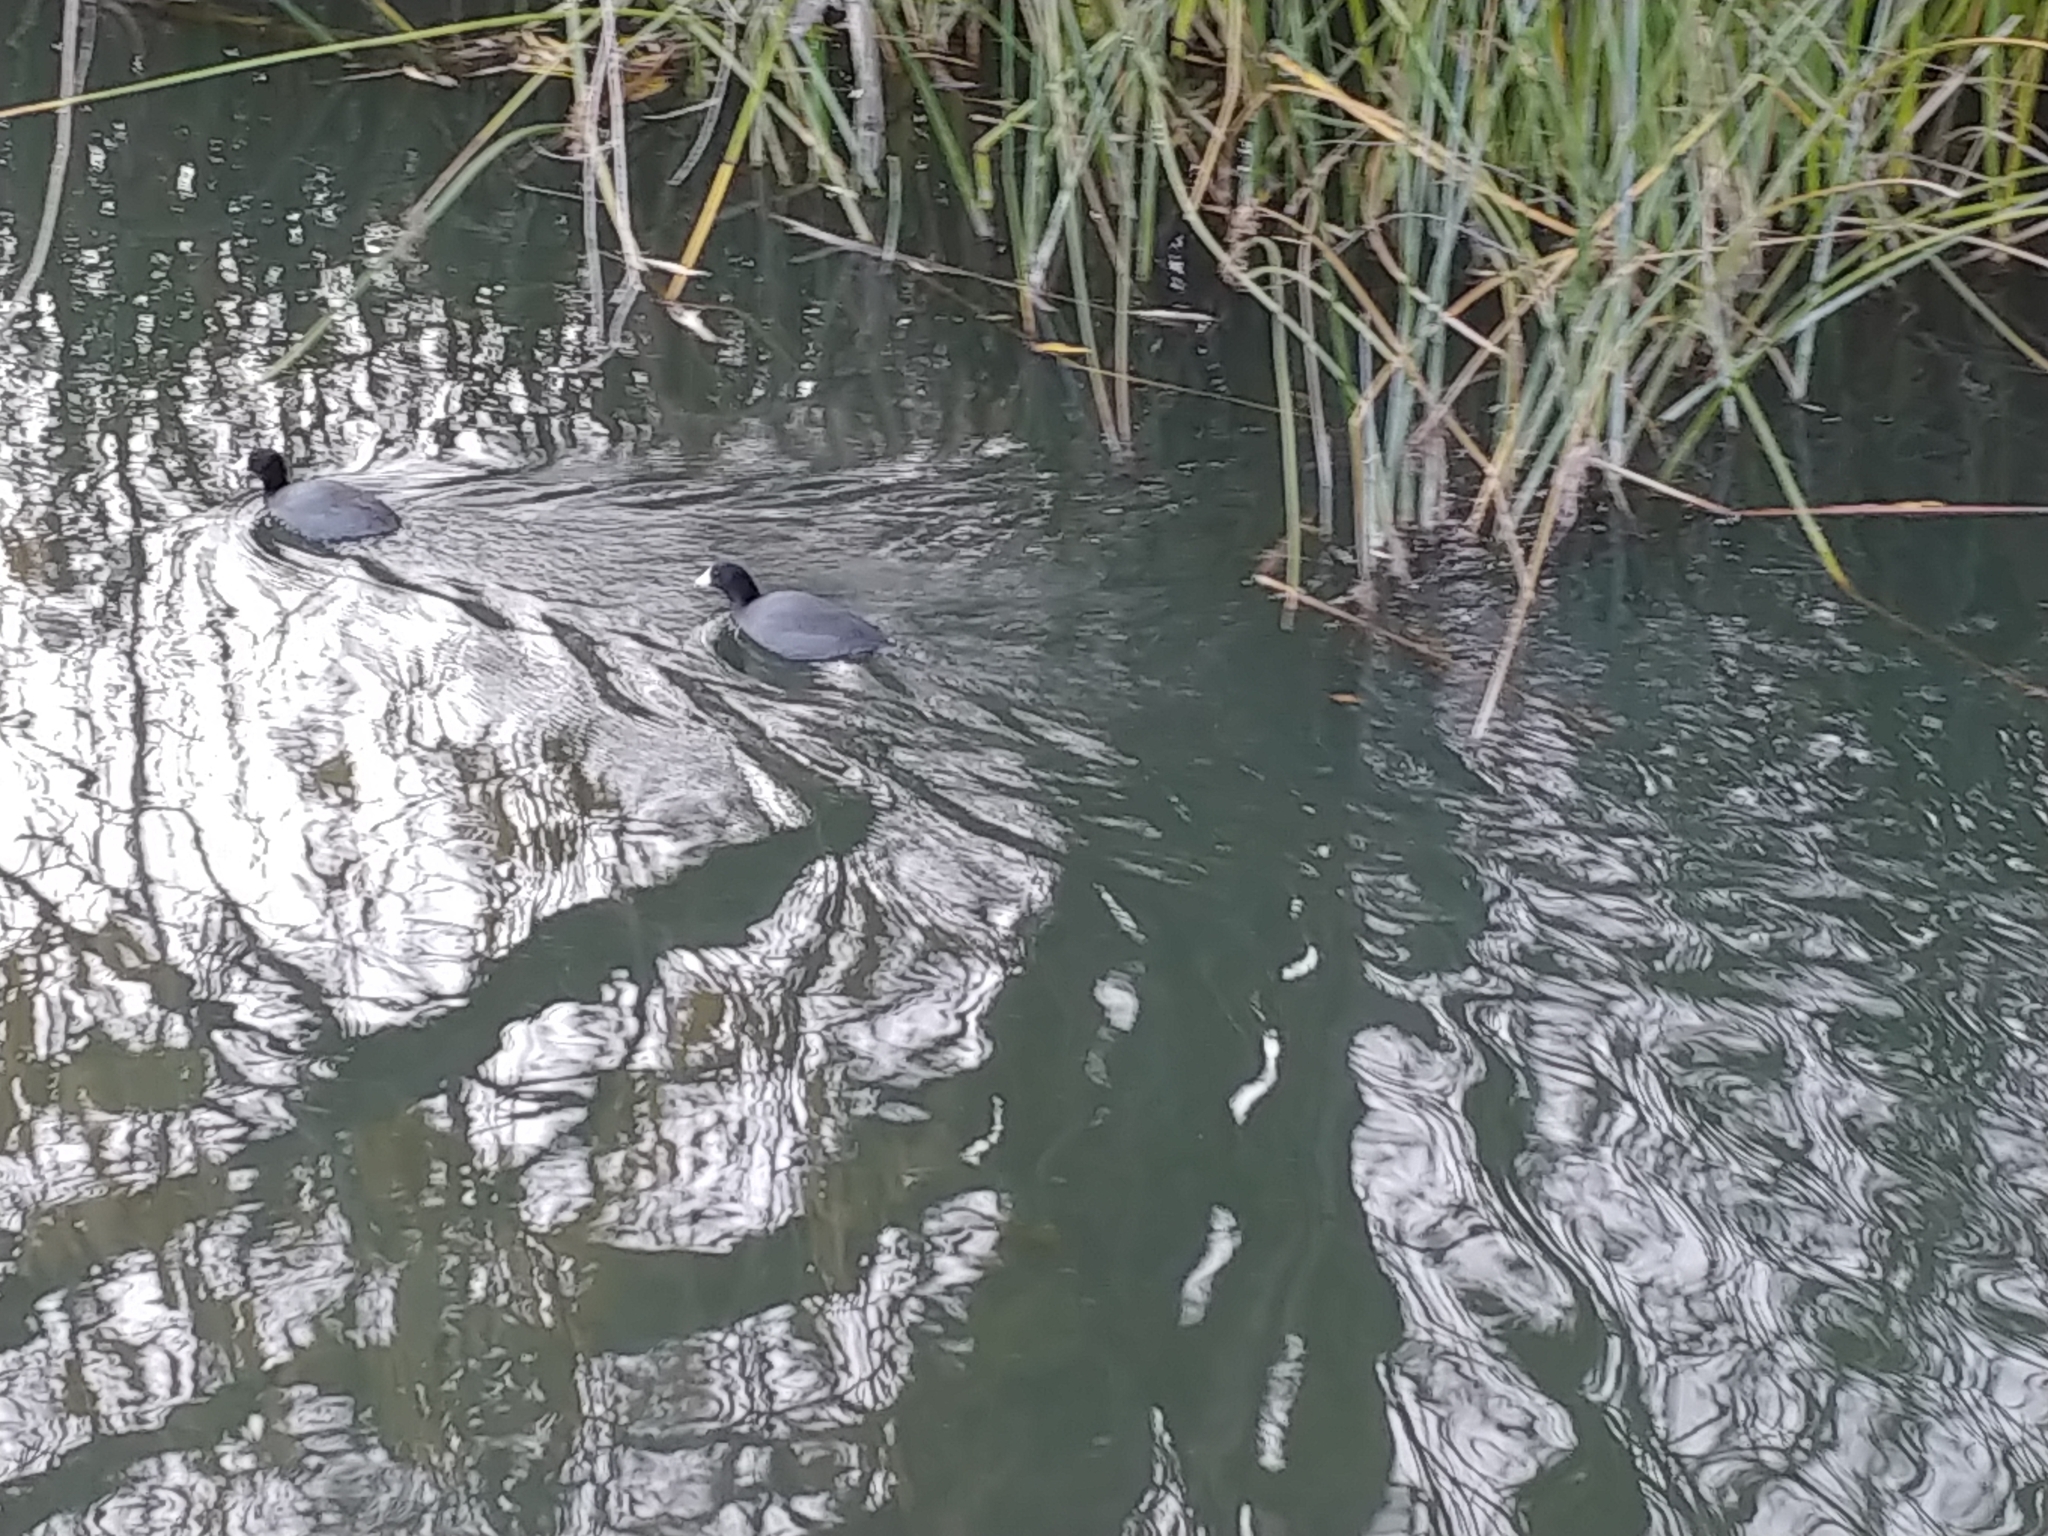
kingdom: Animalia
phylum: Chordata
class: Aves
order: Gruiformes
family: Rallidae
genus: Fulica
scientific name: Fulica americana
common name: American coot
